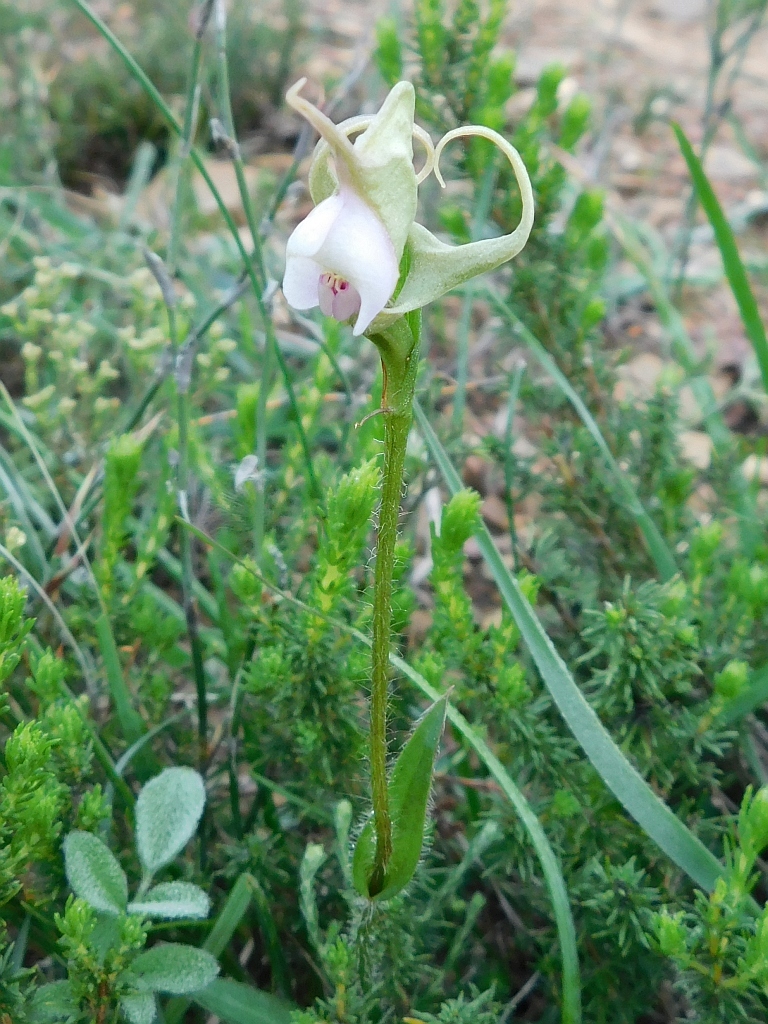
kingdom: Plantae
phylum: Tracheophyta
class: Liliopsida
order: Asparagales
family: Orchidaceae
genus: Disperis
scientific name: Disperis capensis
